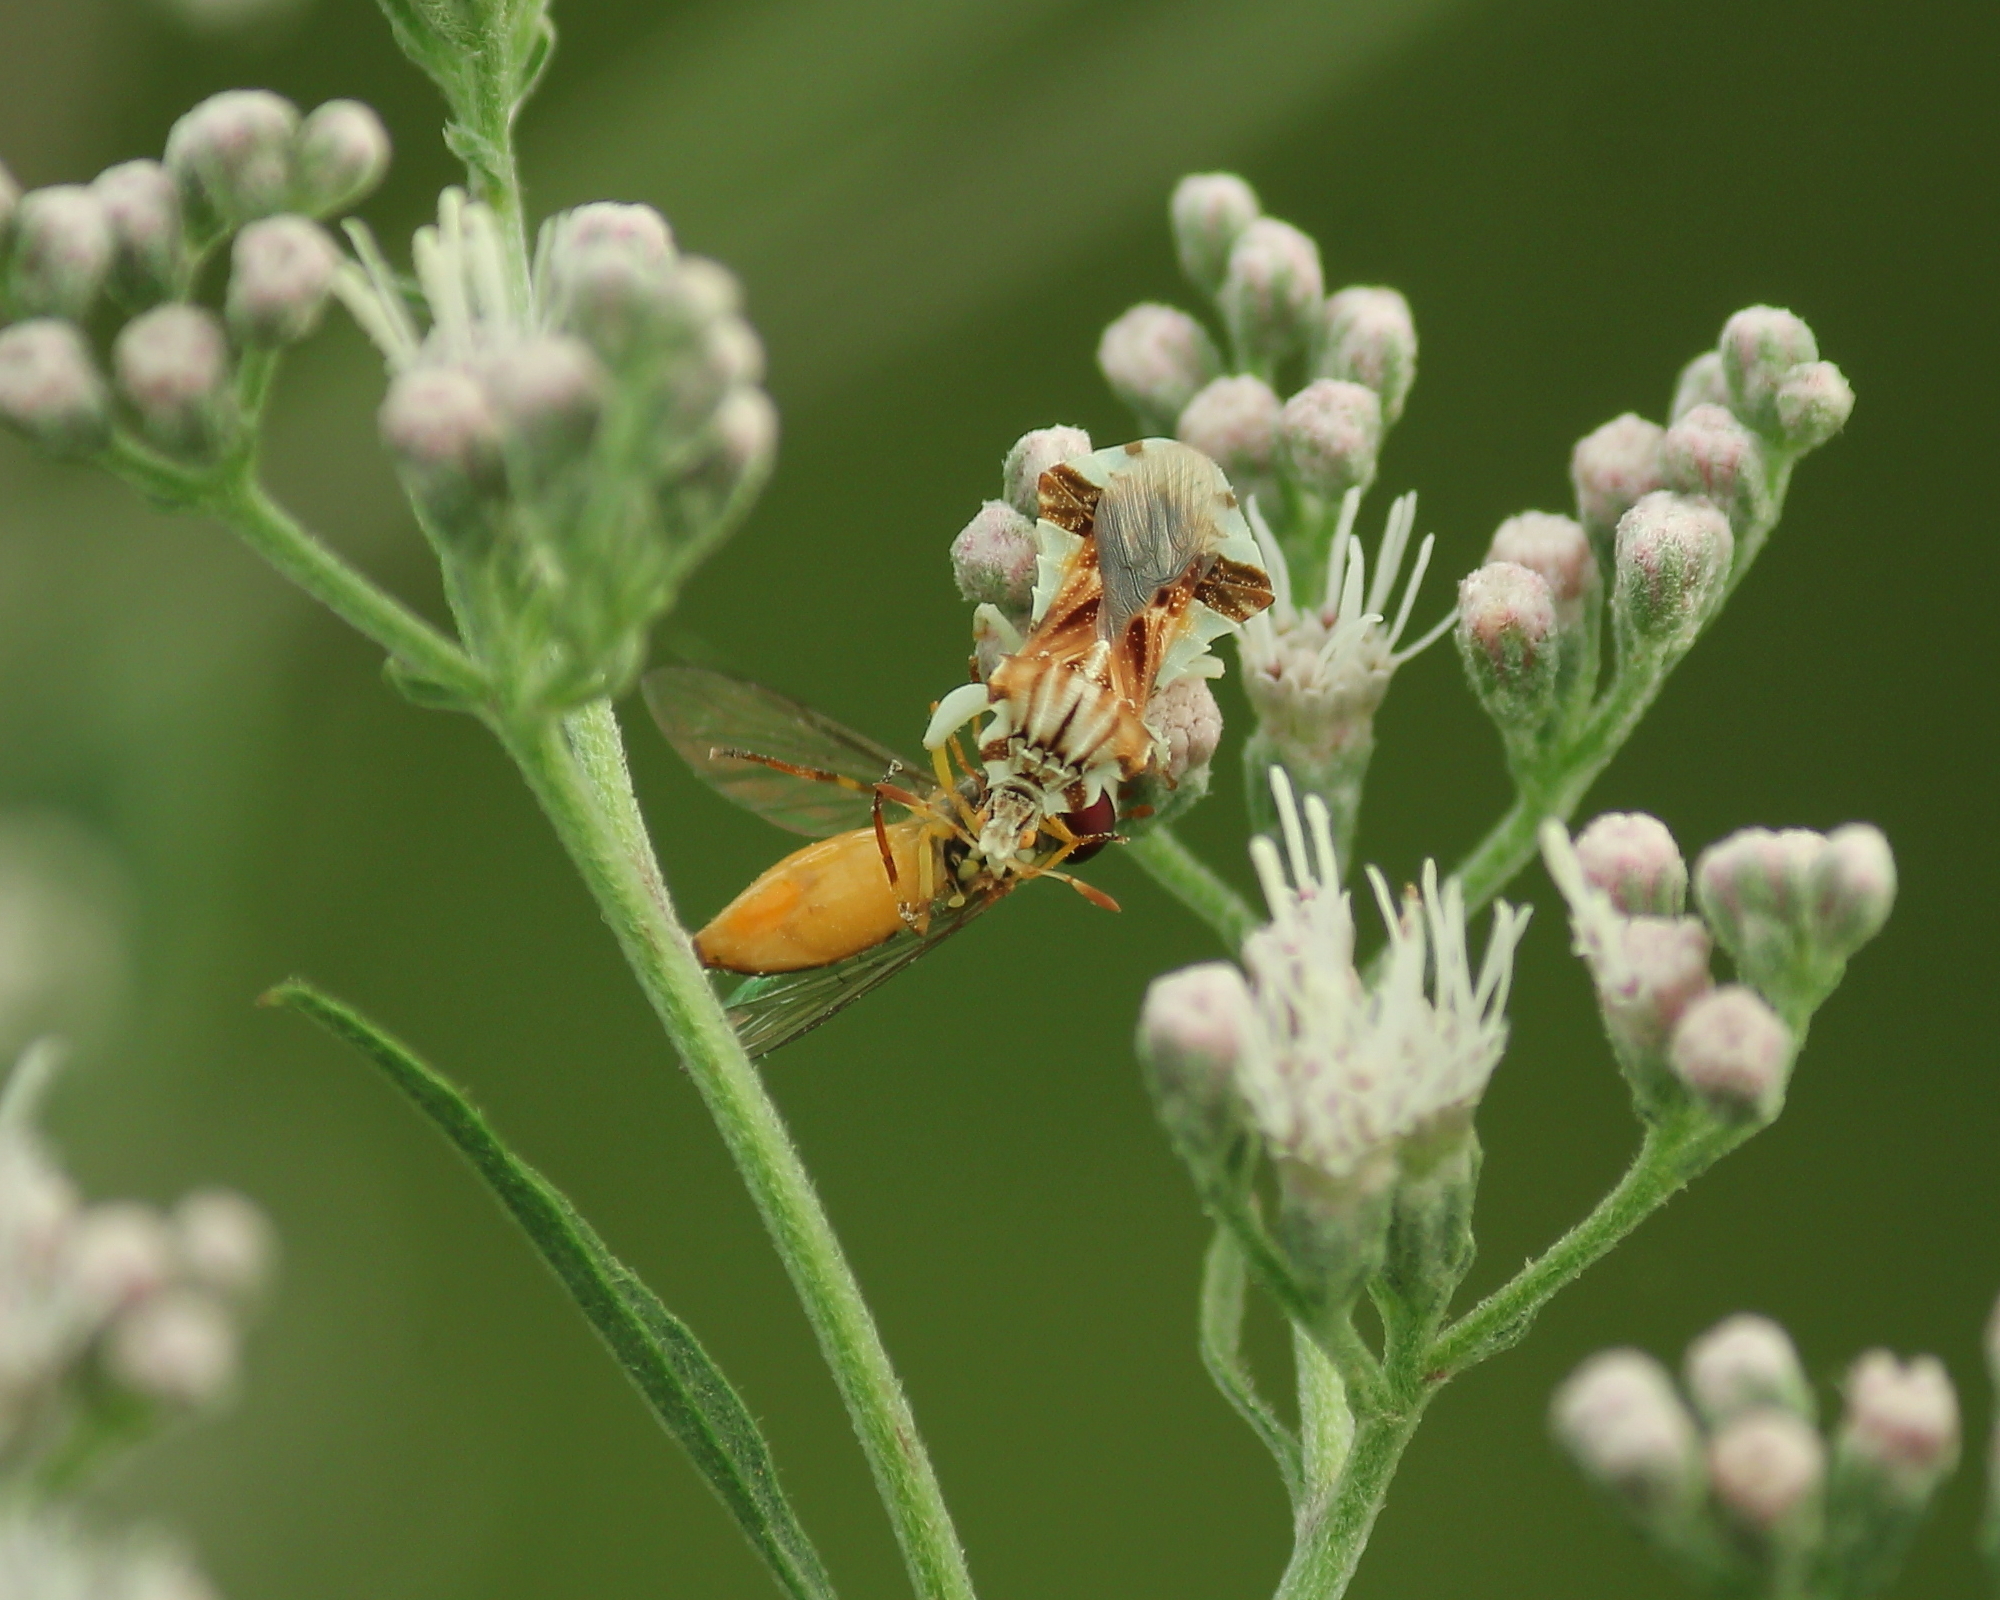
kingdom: Animalia
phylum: Arthropoda
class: Insecta
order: Hemiptera
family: Reduviidae
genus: Phymata
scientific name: Phymata fasciata
